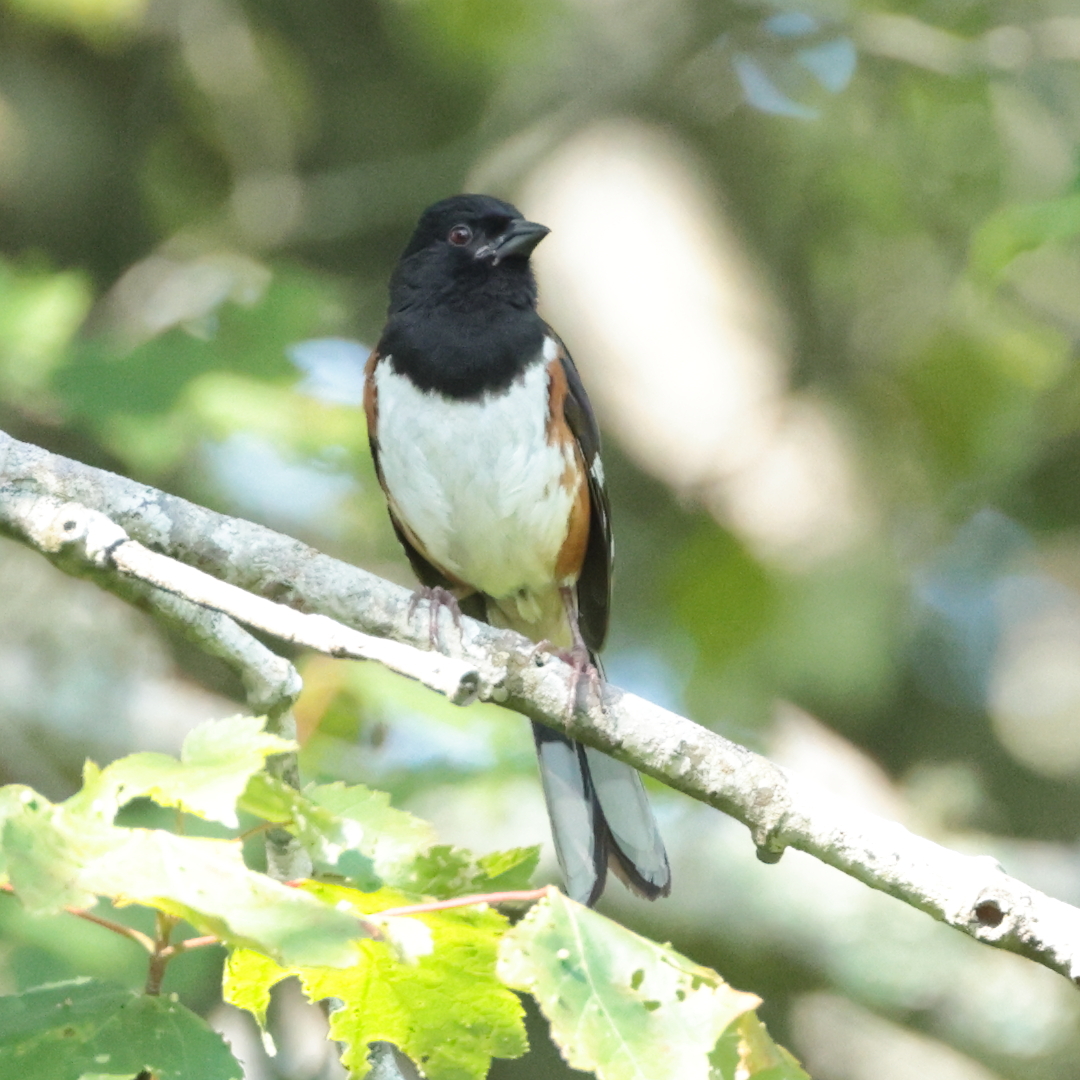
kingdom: Animalia
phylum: Chordata
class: Aves
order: Passeriformes
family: Passerellidae
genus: Pipilo
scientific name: Pipilo erythrophthalmus
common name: Eastern towhee
